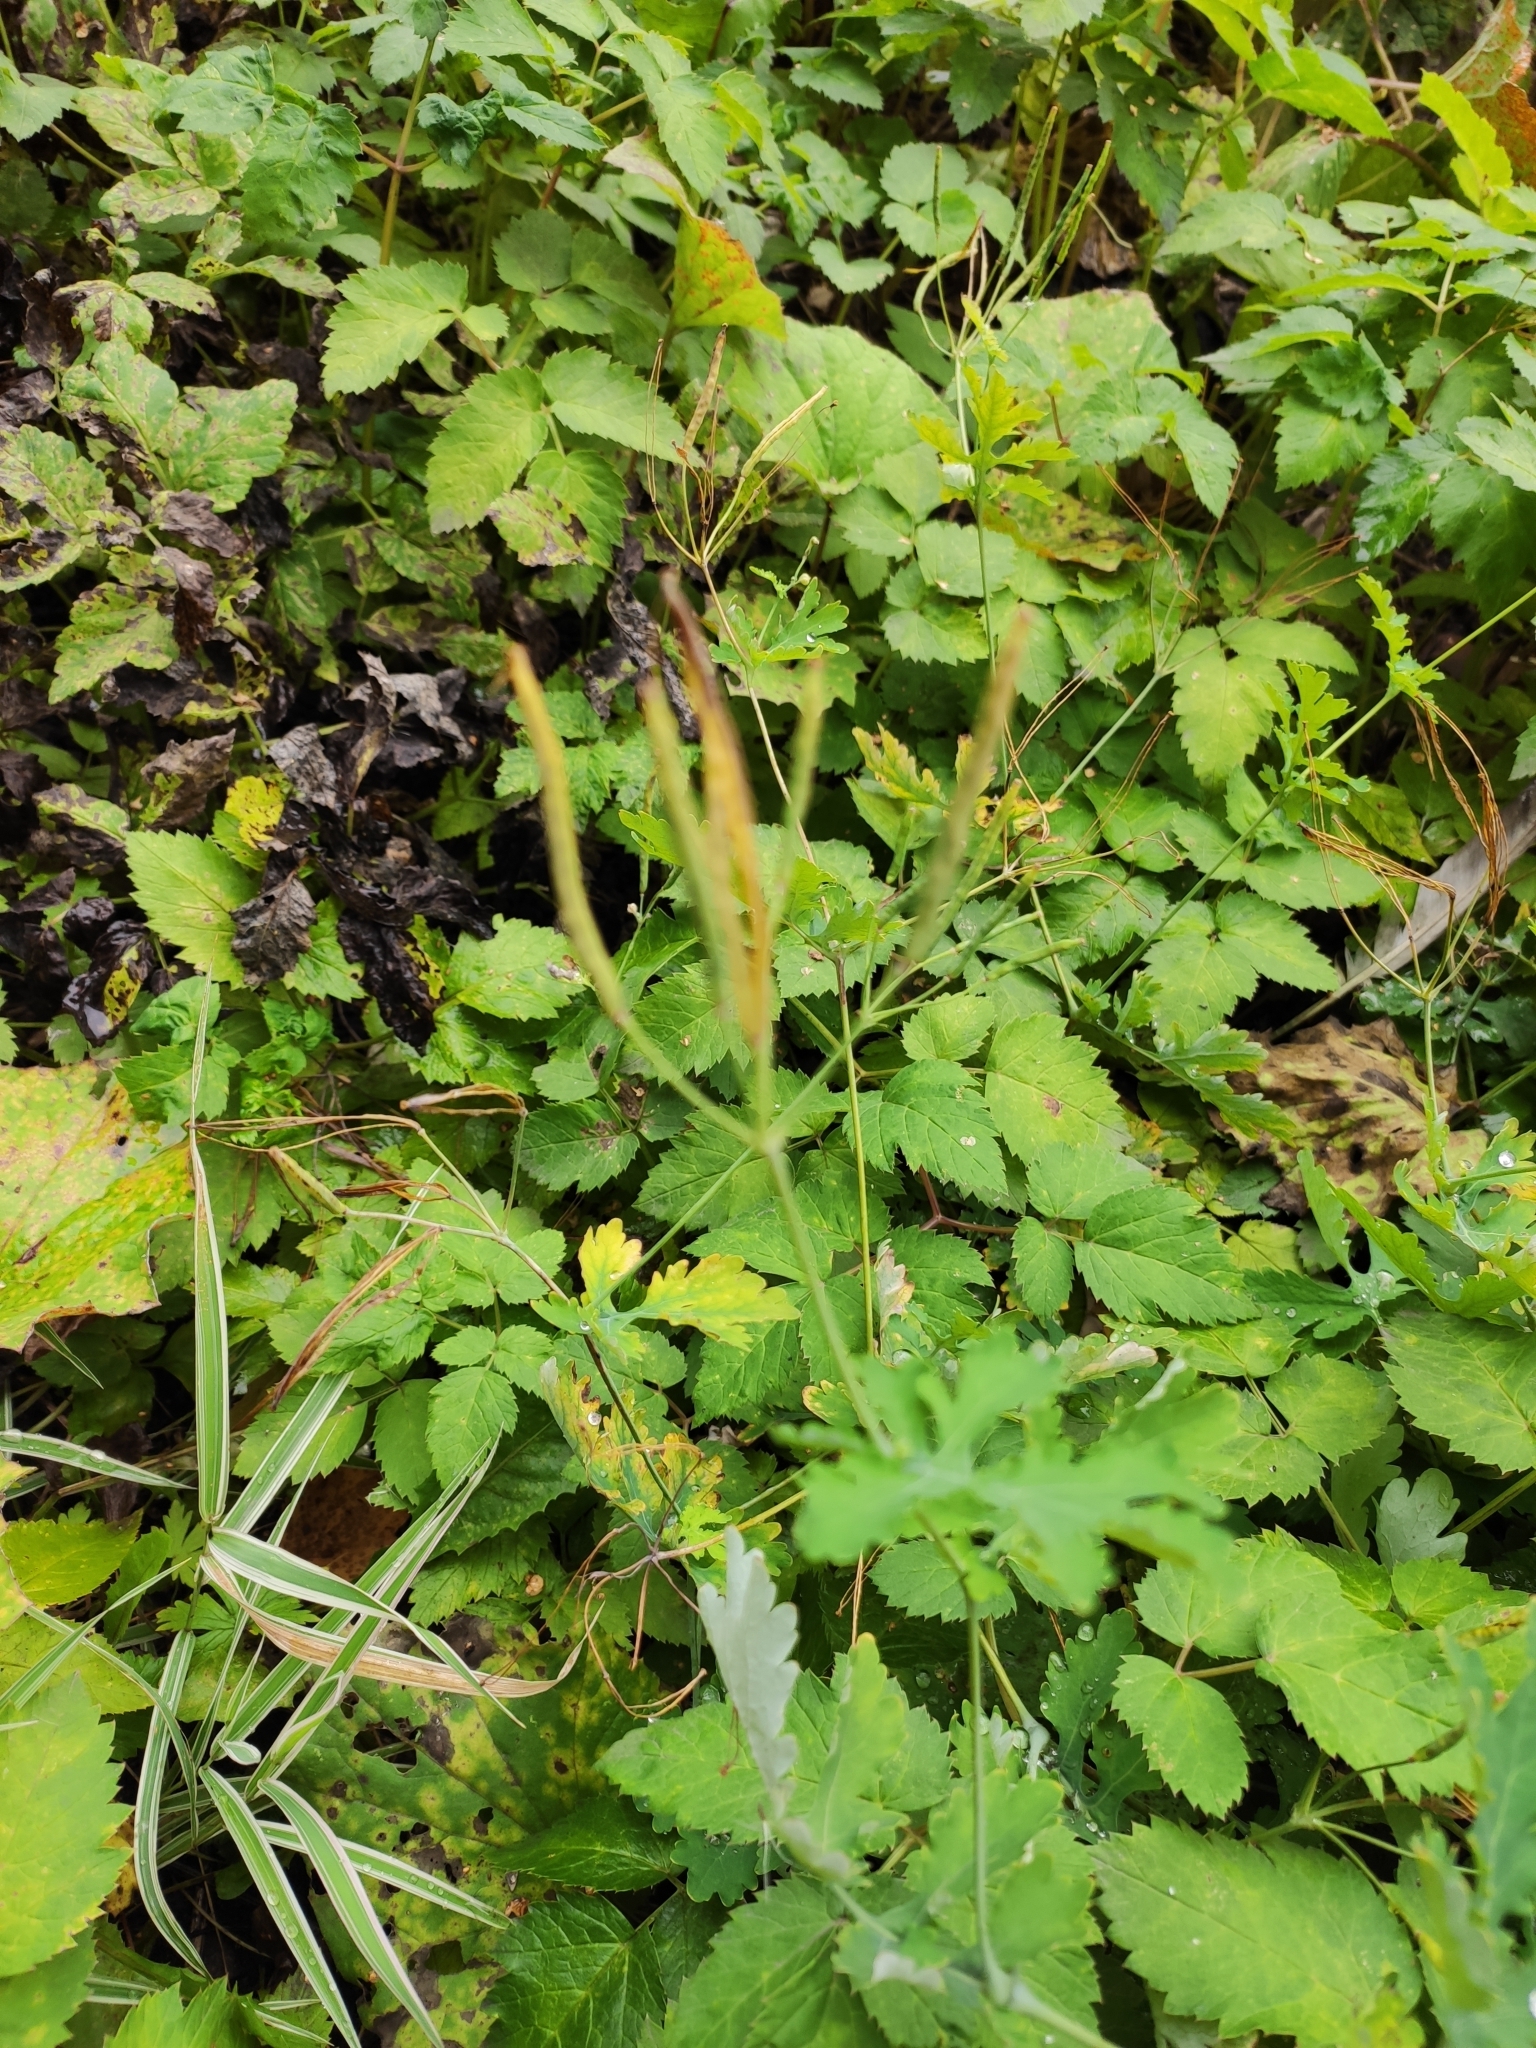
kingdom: Plantae
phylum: Tracheophyta
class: Magnoliopsida
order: Ranunculales
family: Papaveraceae
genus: Chelidonium
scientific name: Chelidonium majus
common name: Greater celandine
